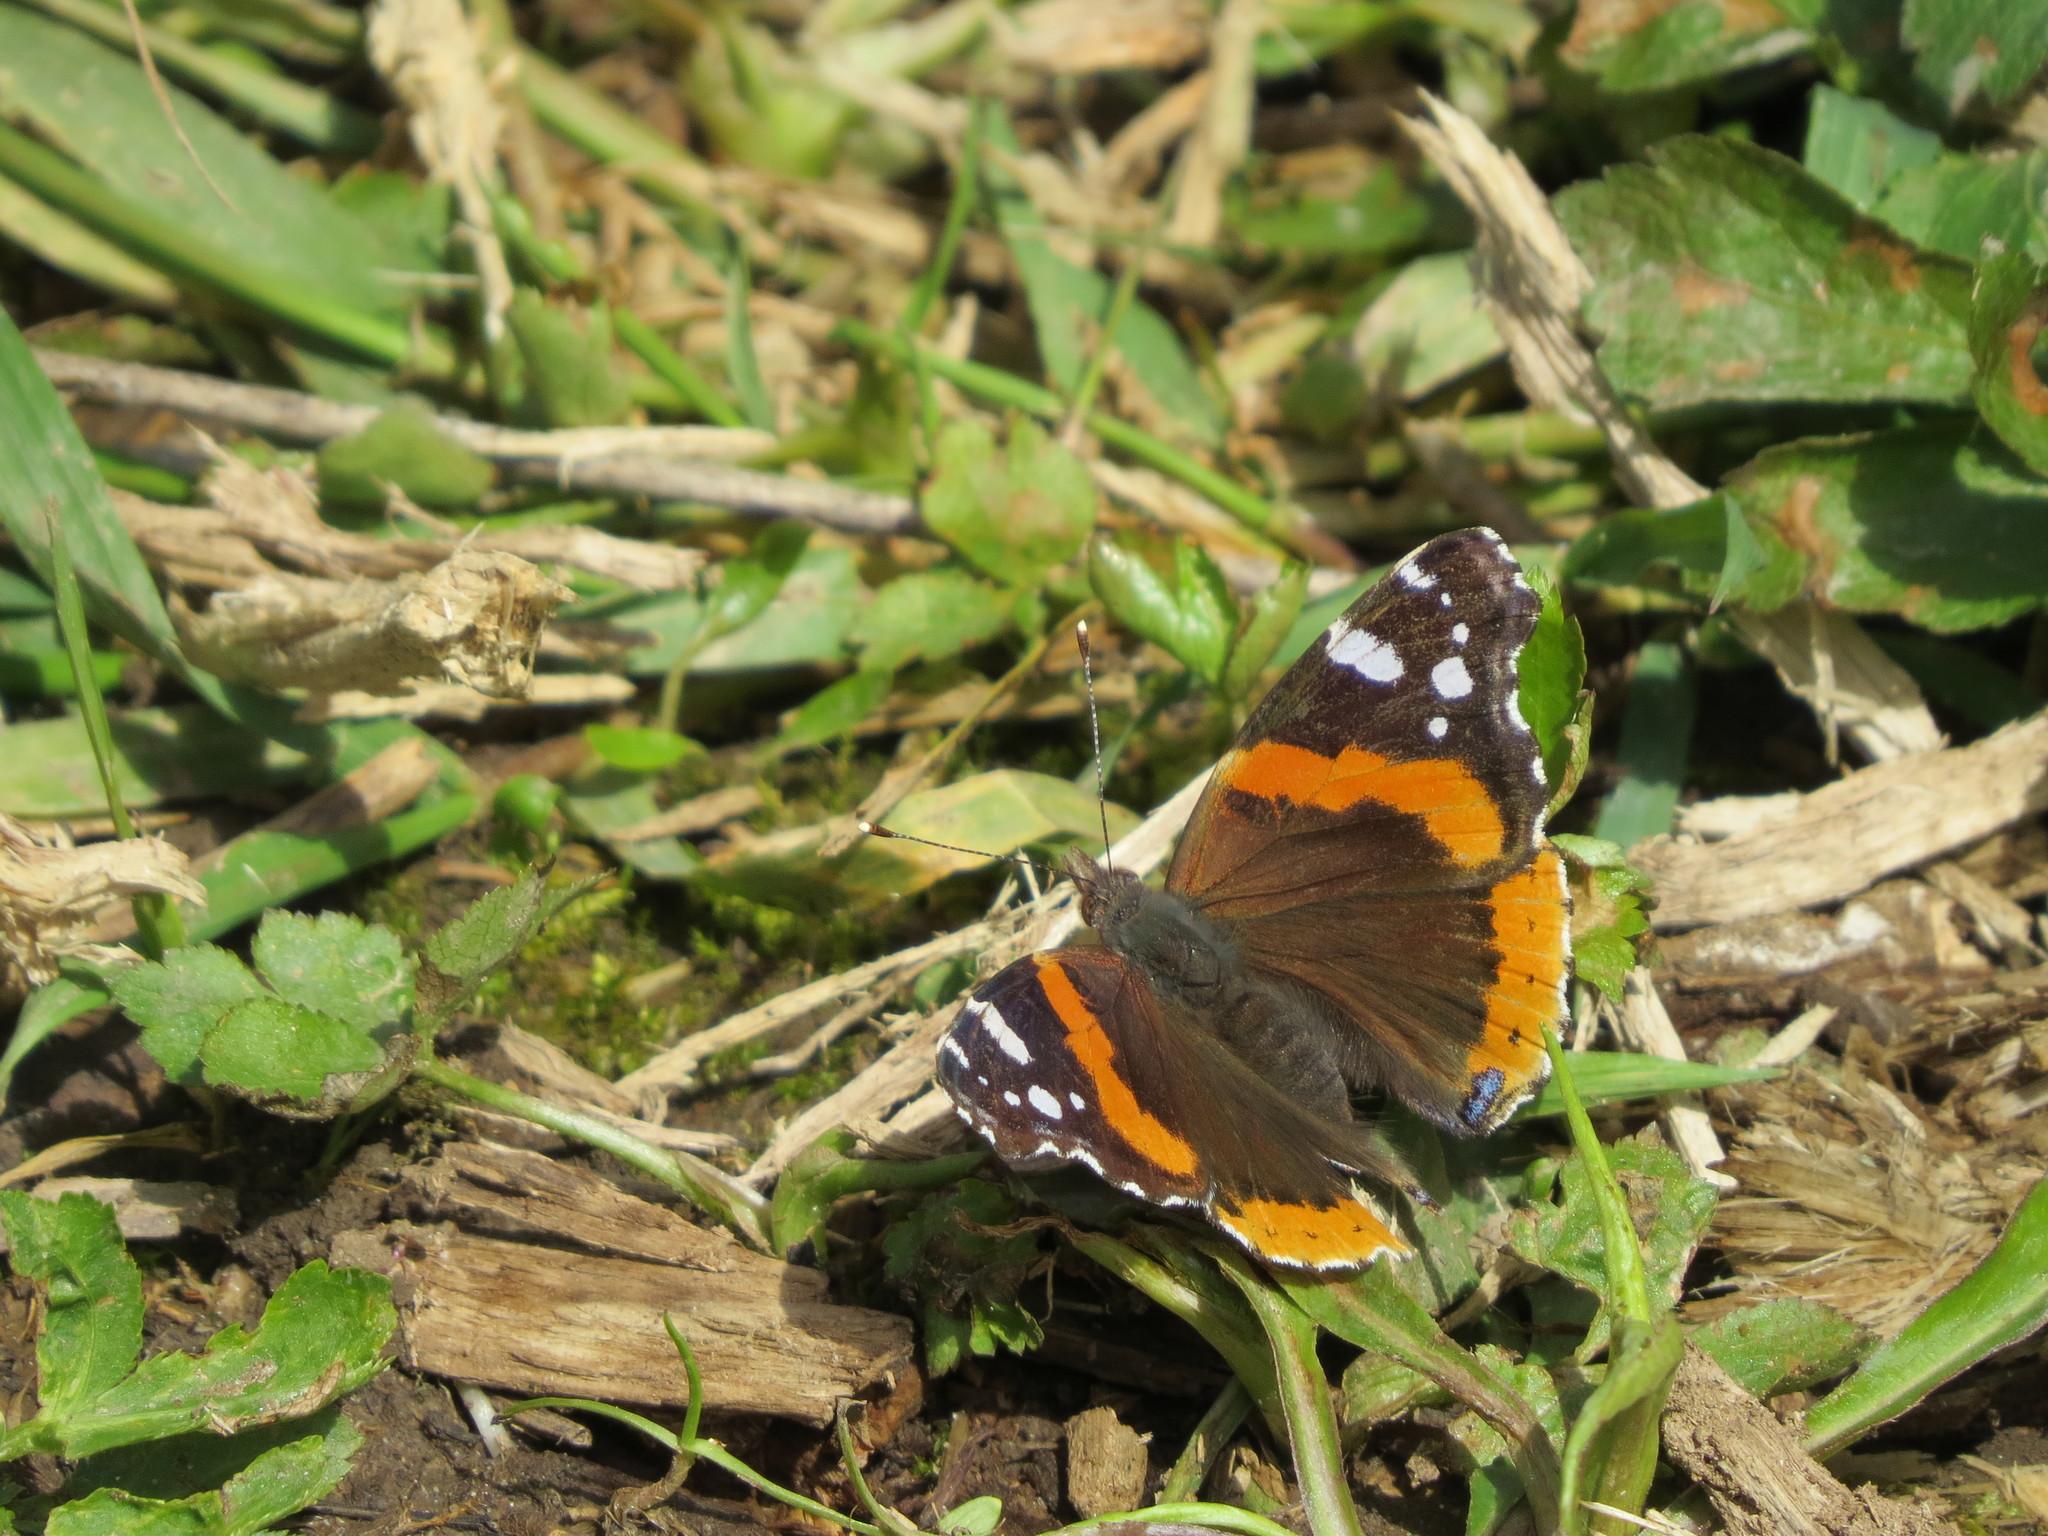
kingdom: Animalia
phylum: Arthropoda
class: Insecta
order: Lepidoptera
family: Nymphalidae
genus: Vanessa
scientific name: Vanessa atalanta
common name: Red admiral
